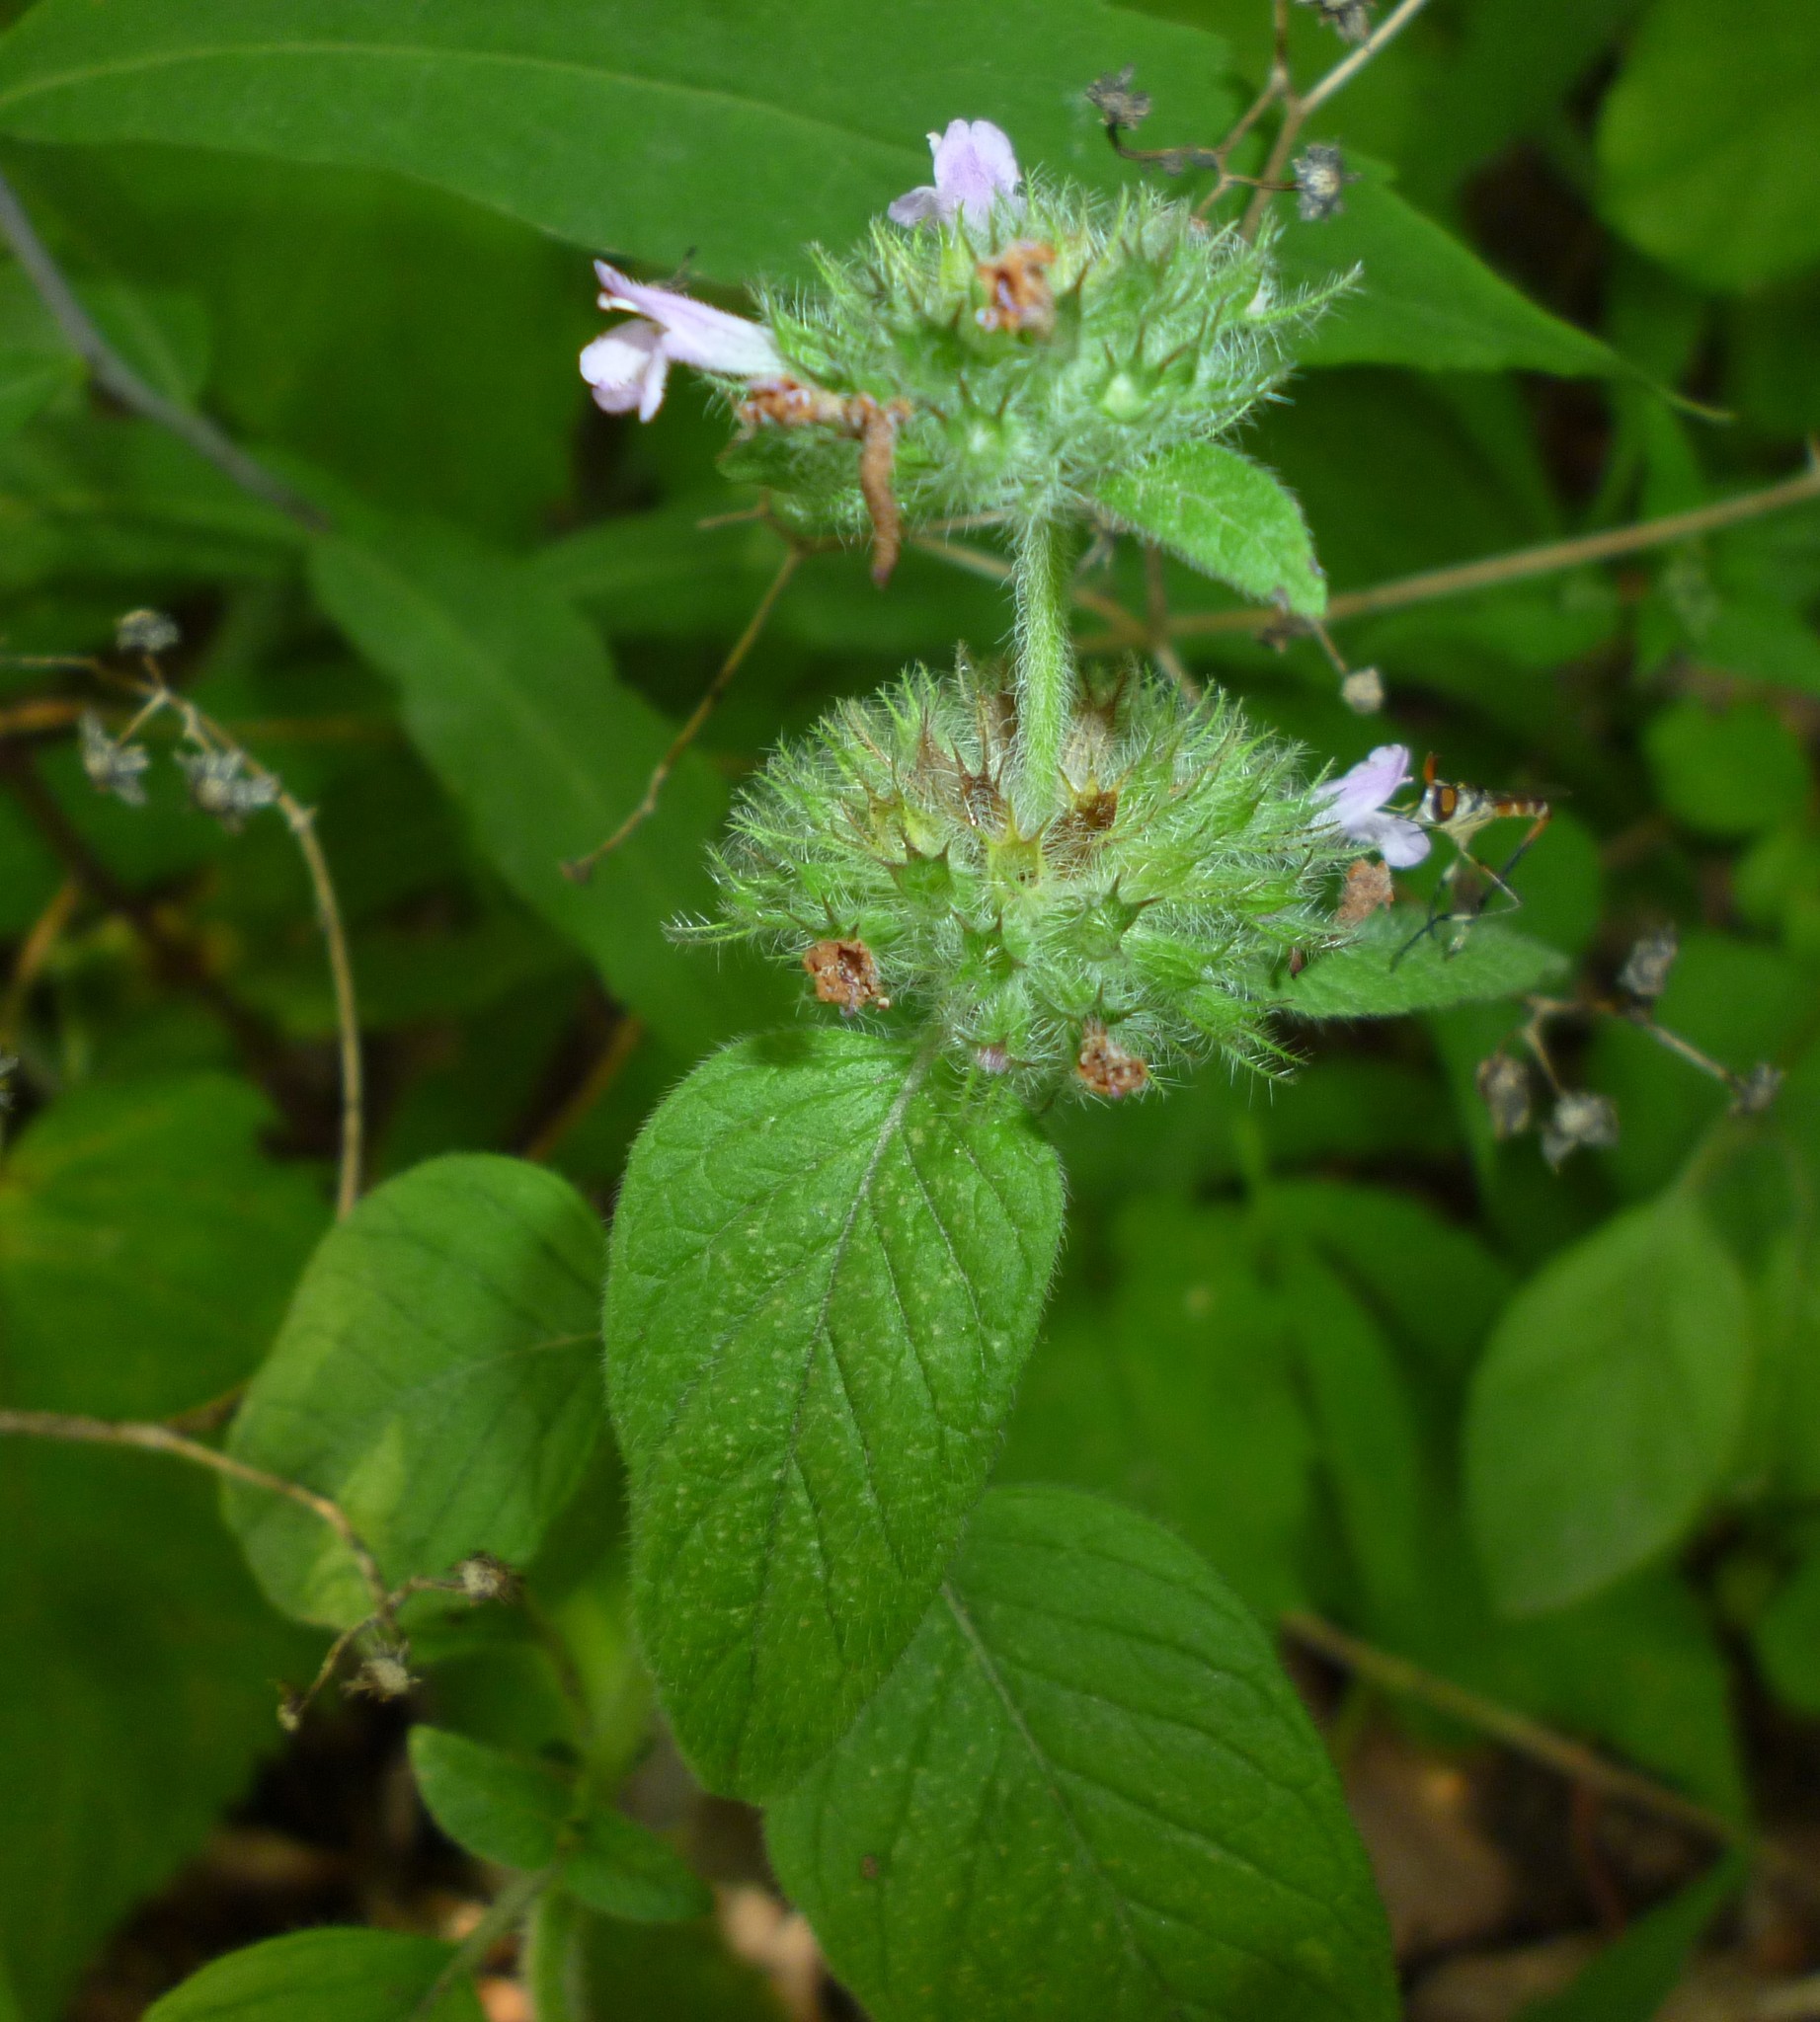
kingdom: Plantae
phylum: Tracheophyta
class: Magnoliopsida
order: Lamiales
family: Lamiaceae
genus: Clinopodium
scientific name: Clinopodium vulgare
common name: Wild basil
